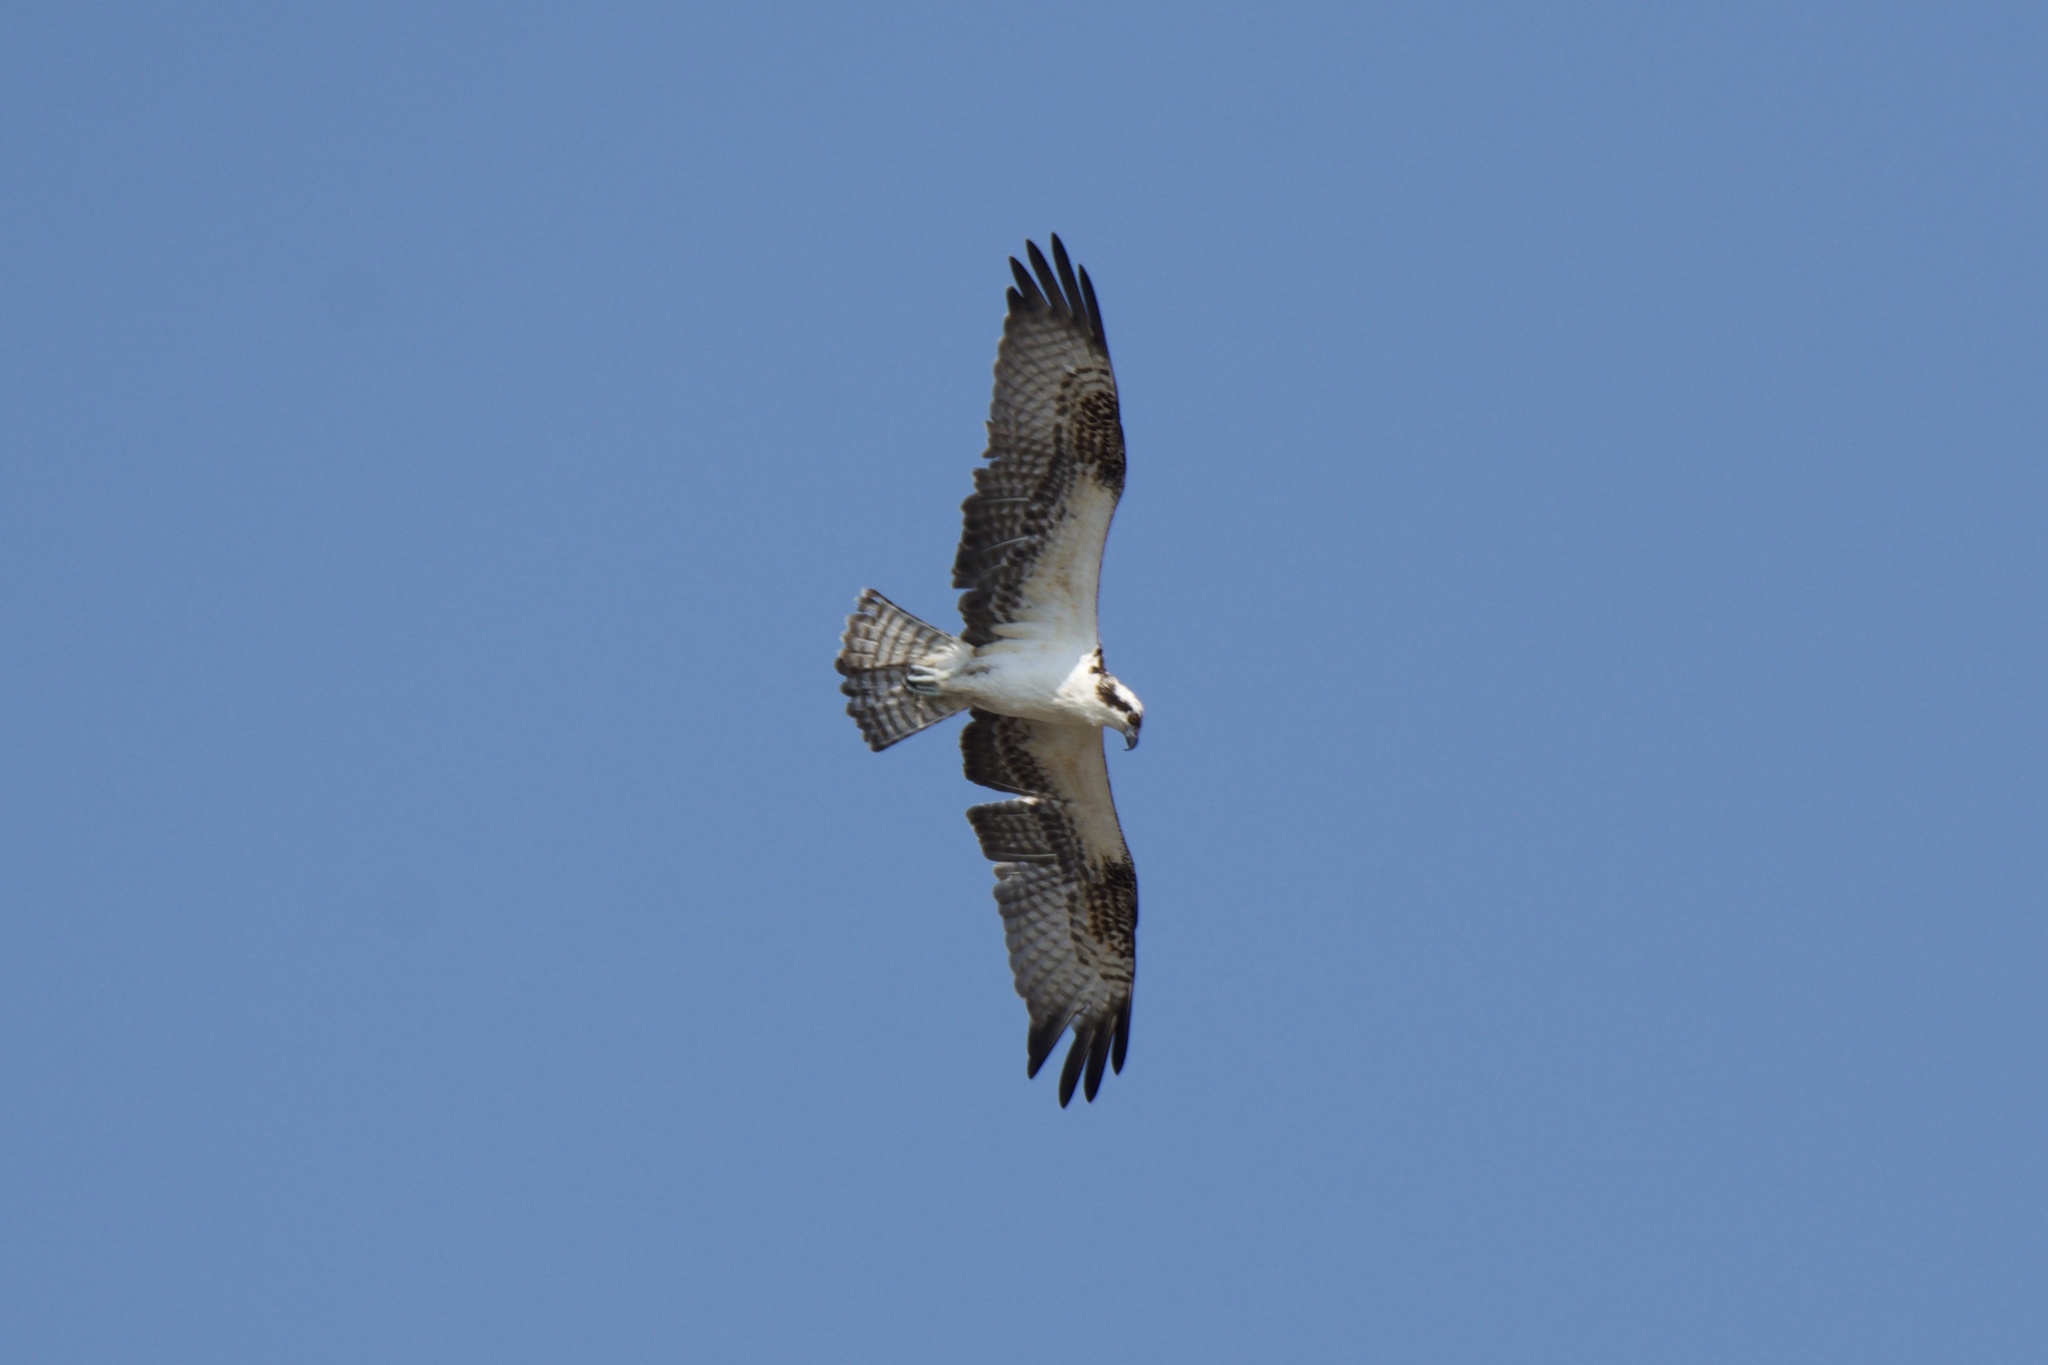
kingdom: Animalia
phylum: Chordata
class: Aves
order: Accipitriformes
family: Pandionidae
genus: Pandion
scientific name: Pandion haliaetus
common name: Osprey
